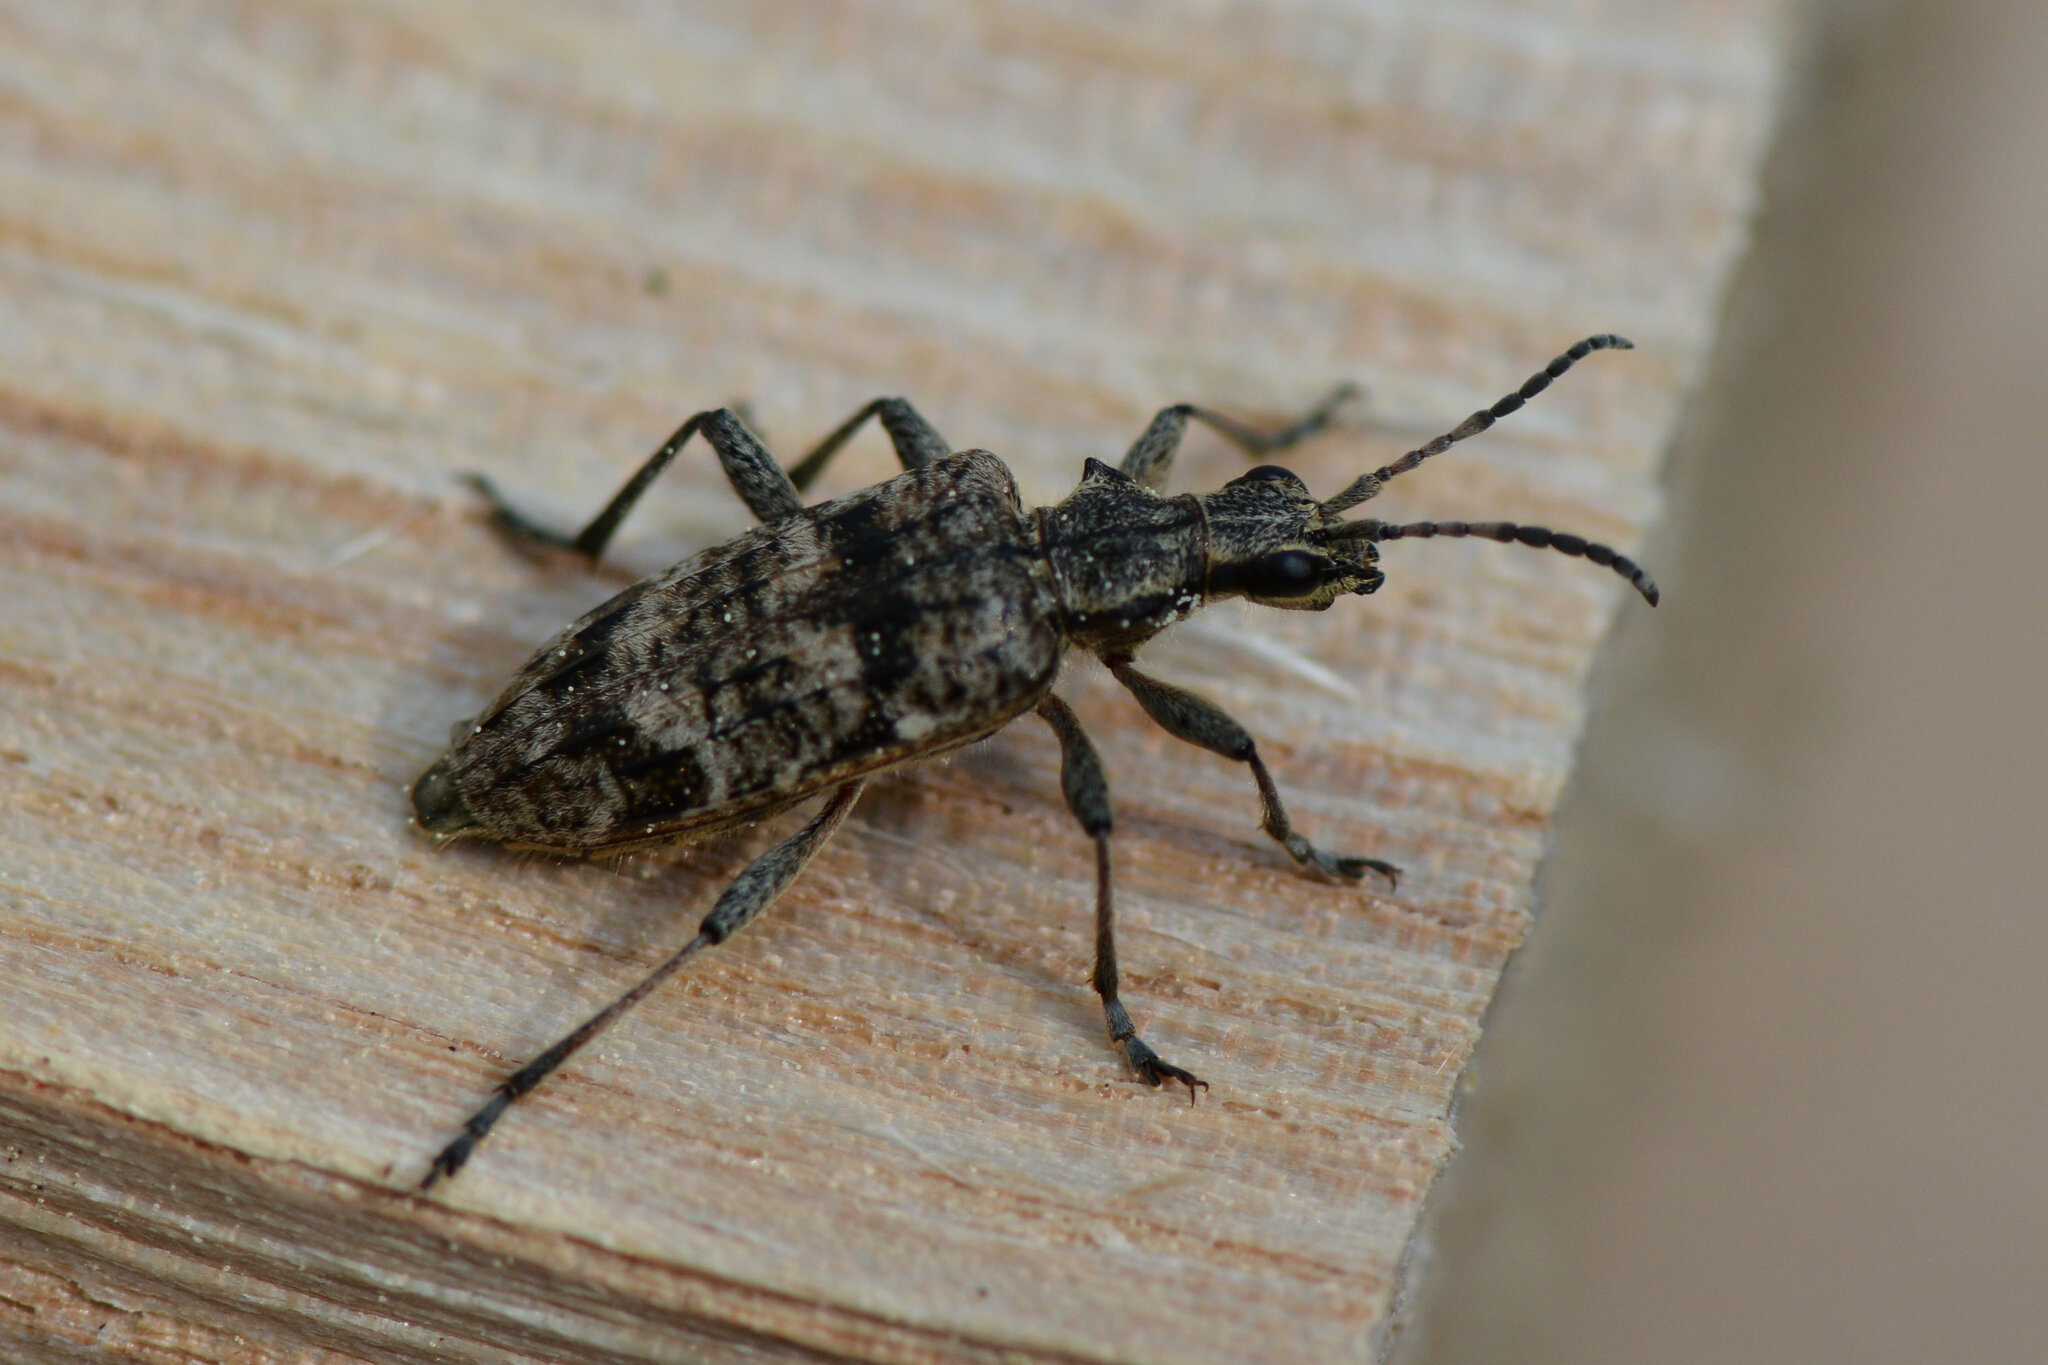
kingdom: Animalia
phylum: Arthropoda
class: Insecta
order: Coleoptera
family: Cerambycidae
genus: Rhagium
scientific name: Rhagium inquisitor
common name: Ribbed pine borer
